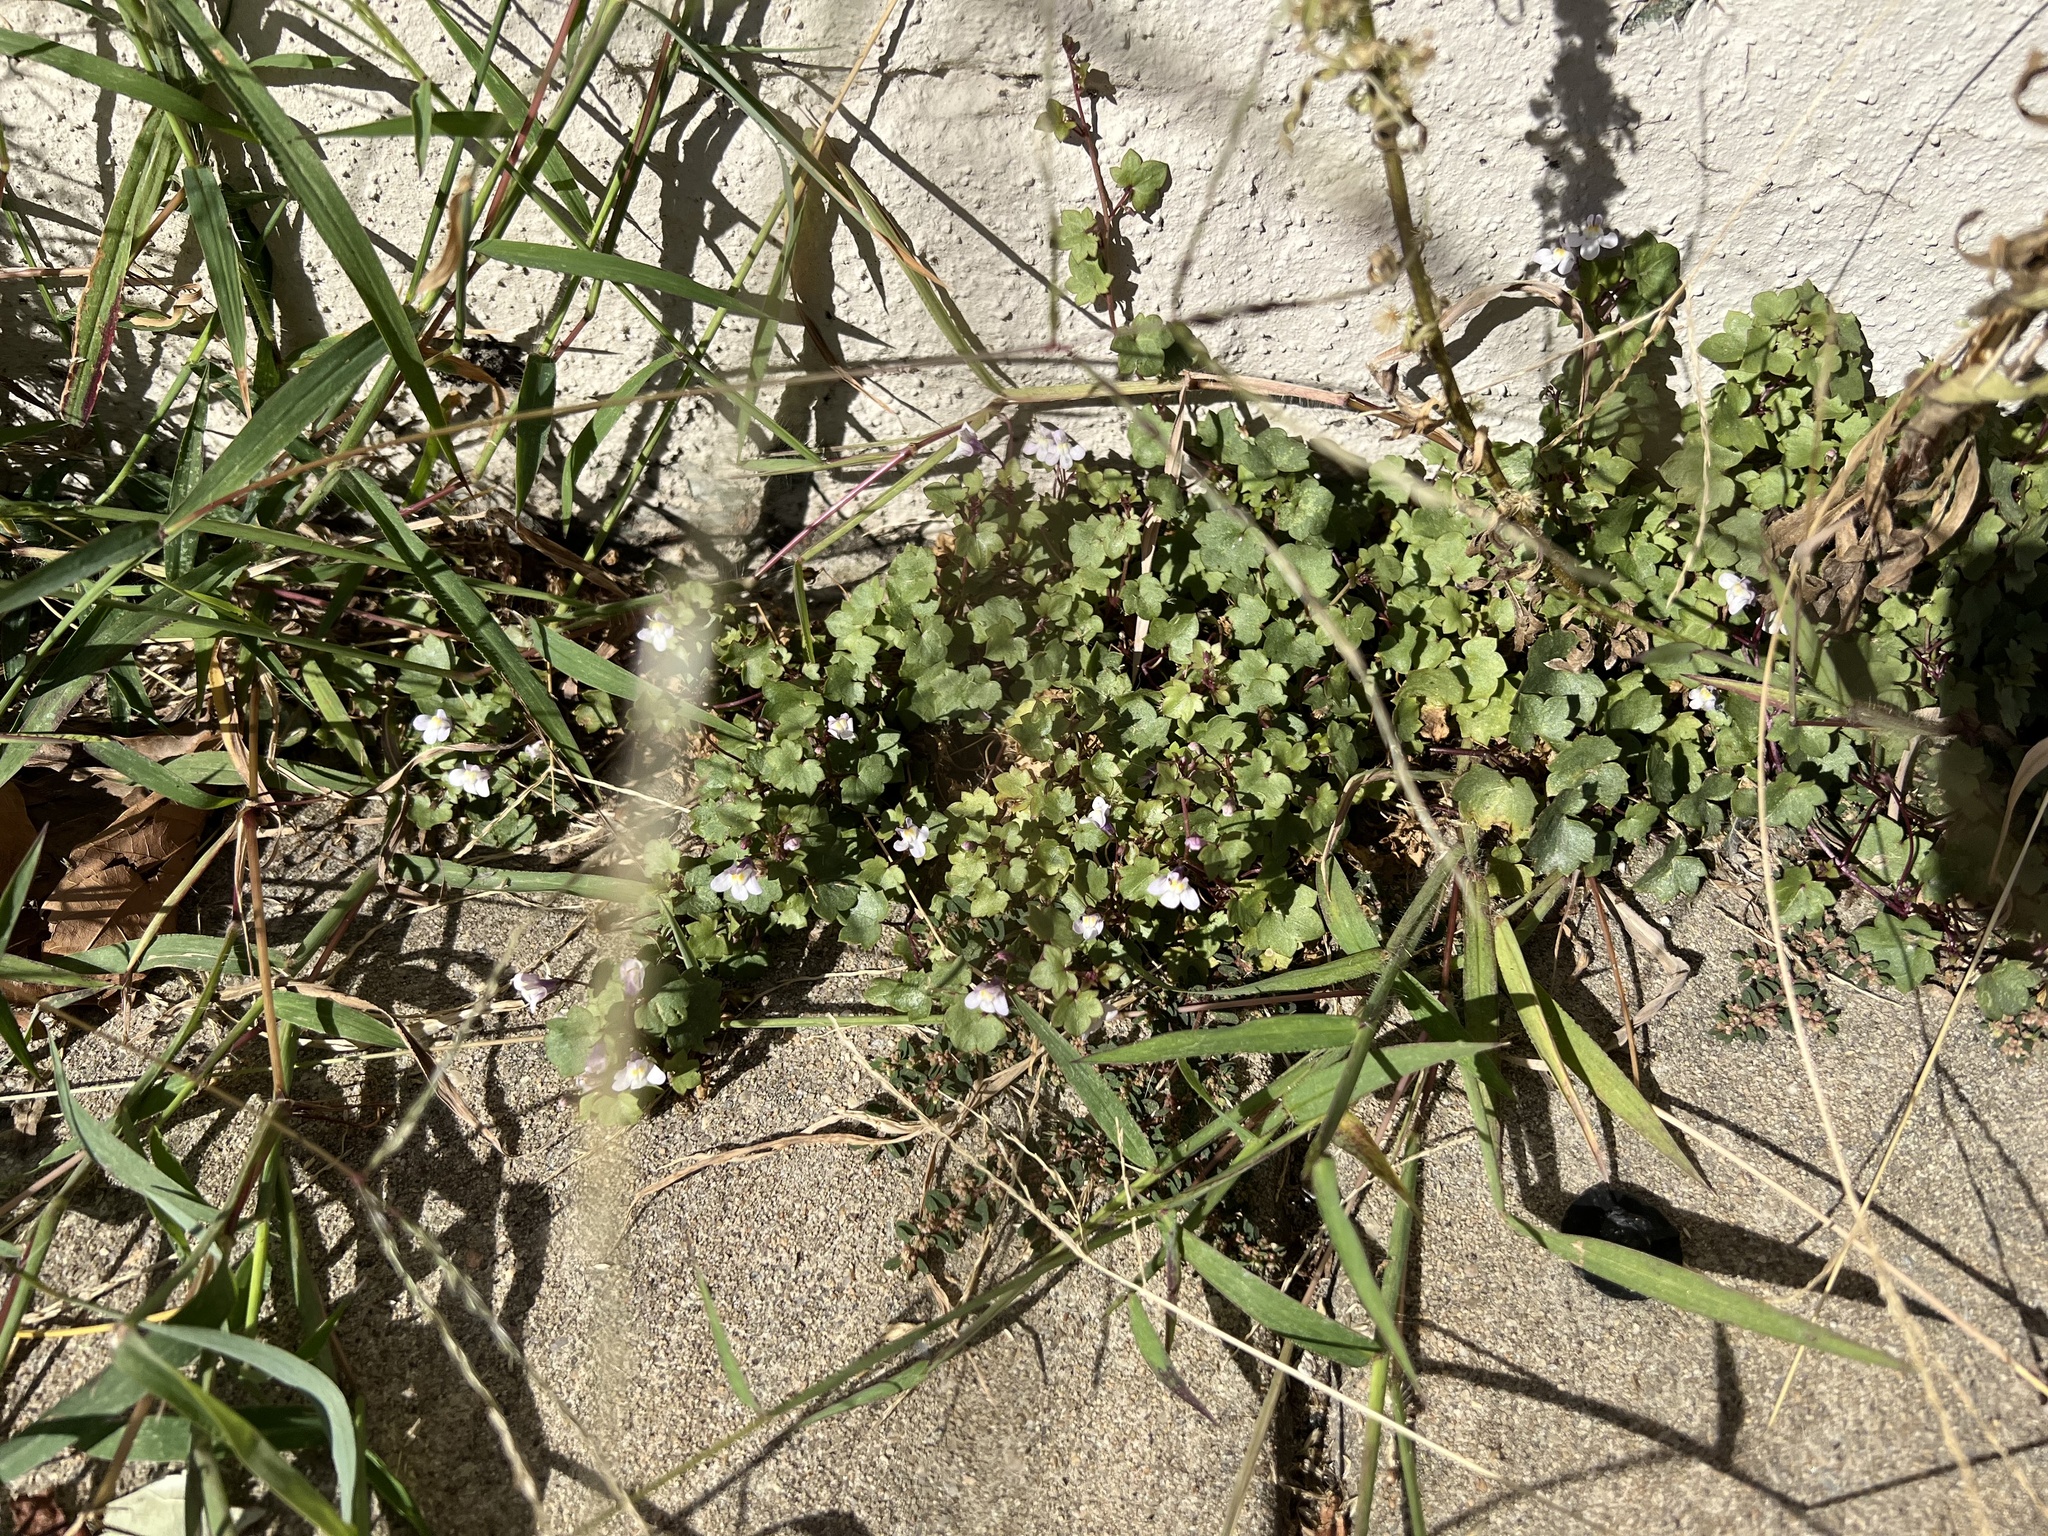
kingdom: Plantae
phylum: Tracheophyta
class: Magnoliopsida
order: Lamiales
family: Plantaginaceae
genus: Cymbalaria
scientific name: Cymbalaria muralis
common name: Ivy-leaved toadflax
